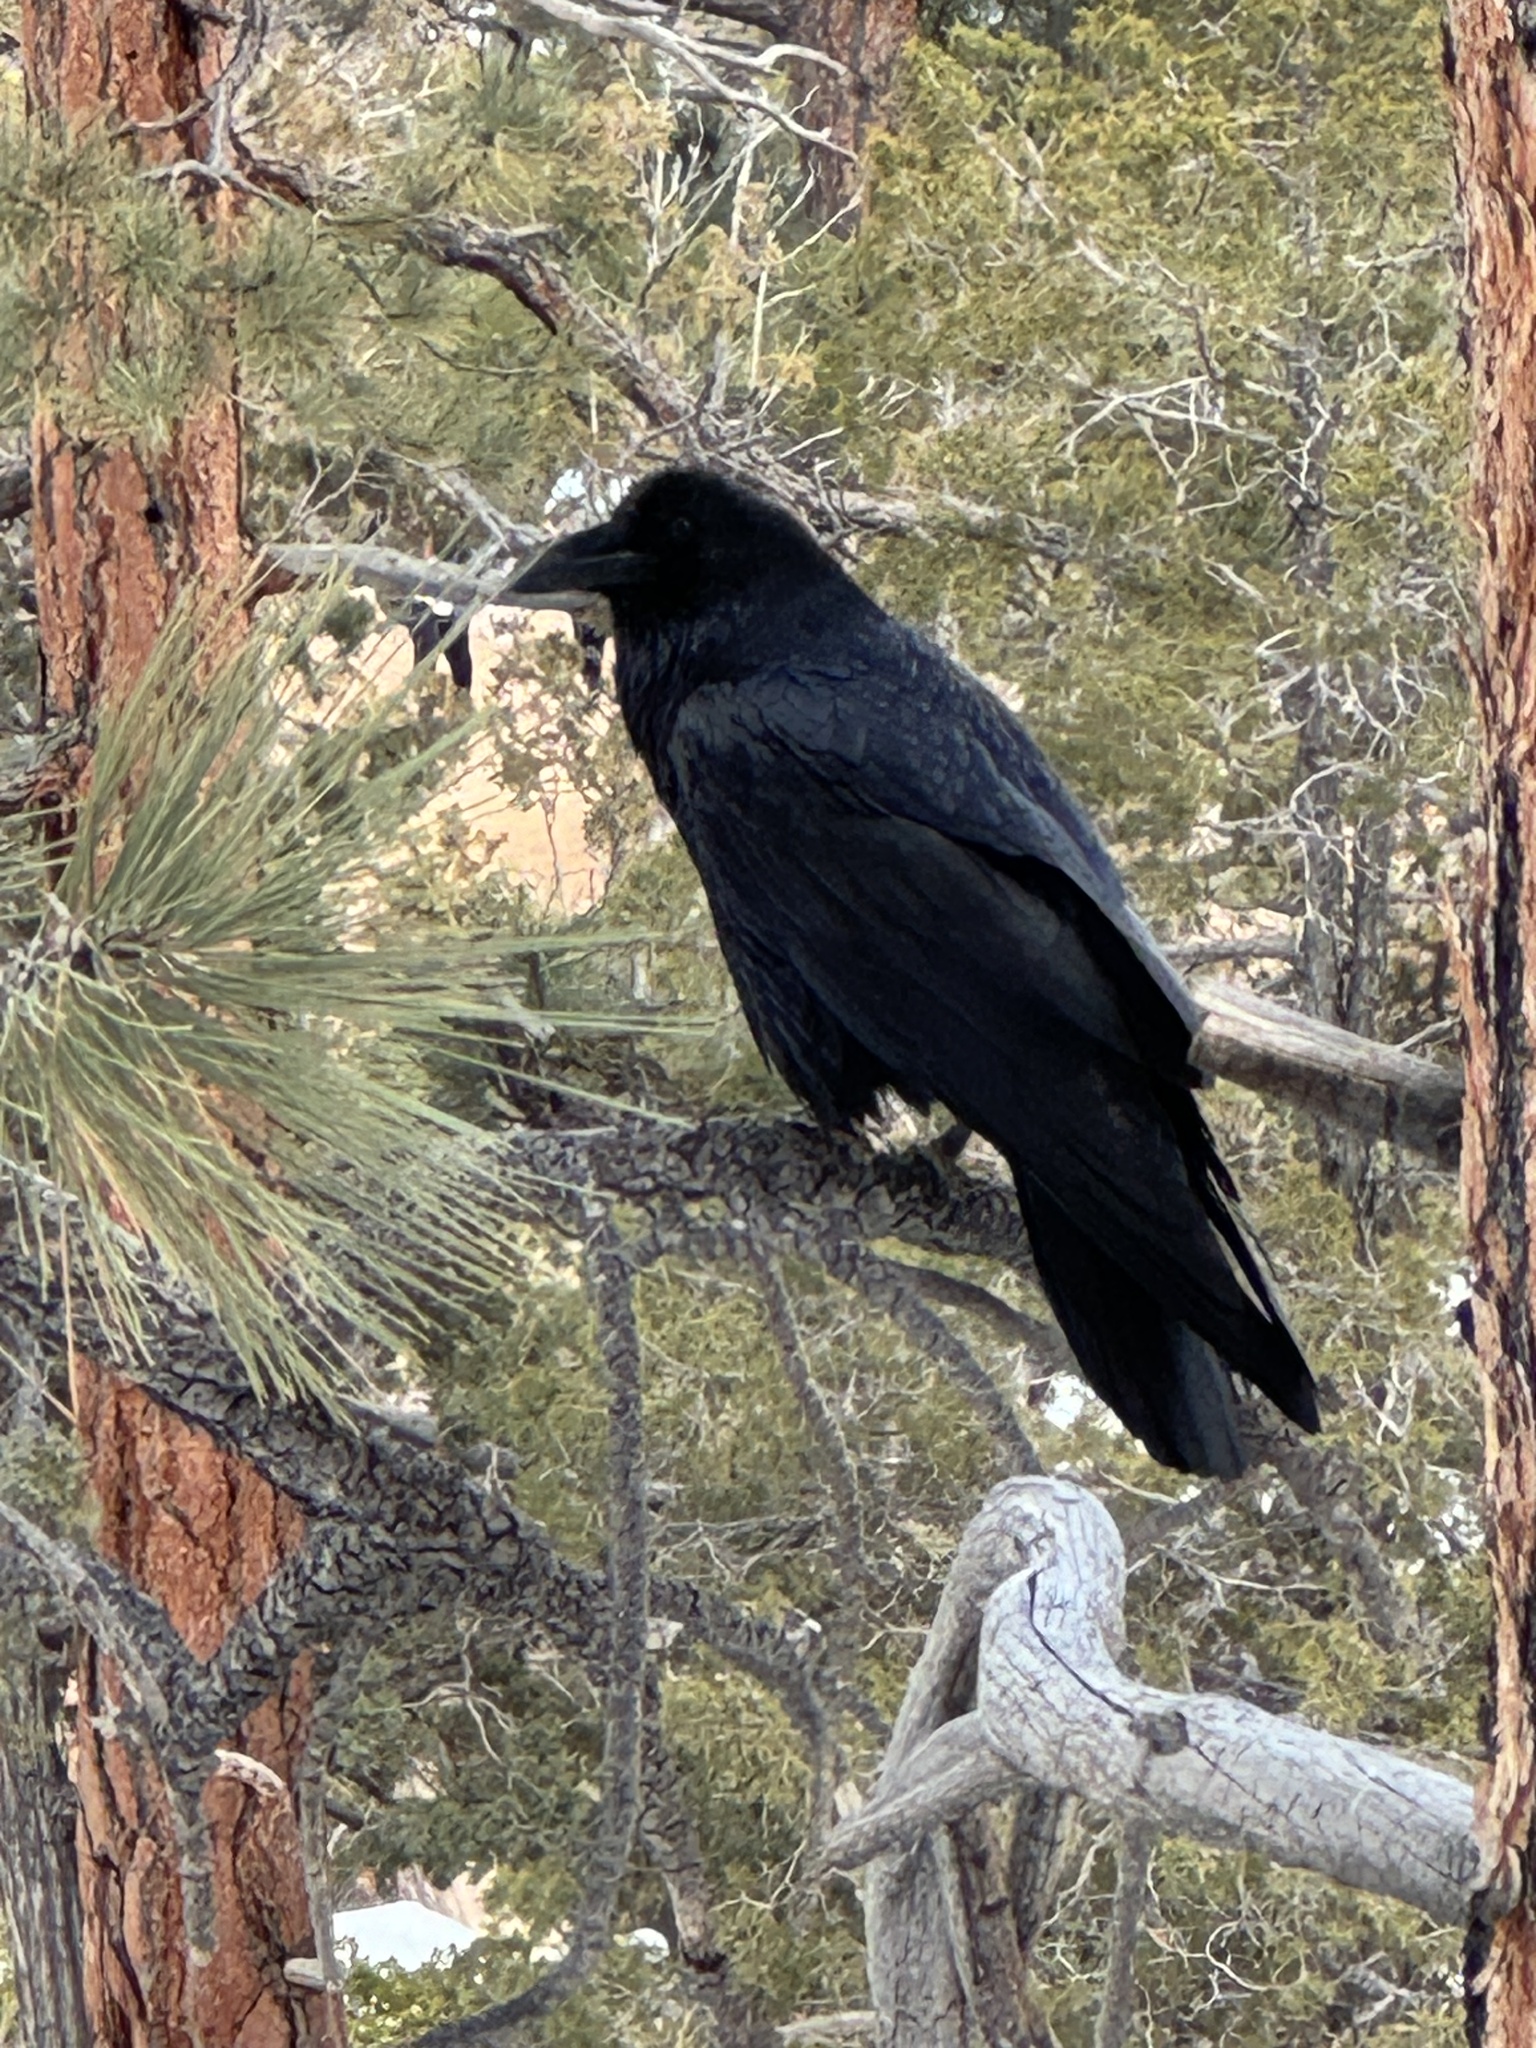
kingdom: Animalia
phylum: Chordata
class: Aves
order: Passeriformes
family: Corvidae
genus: Corvus
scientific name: Corvus corax
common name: Common raven
